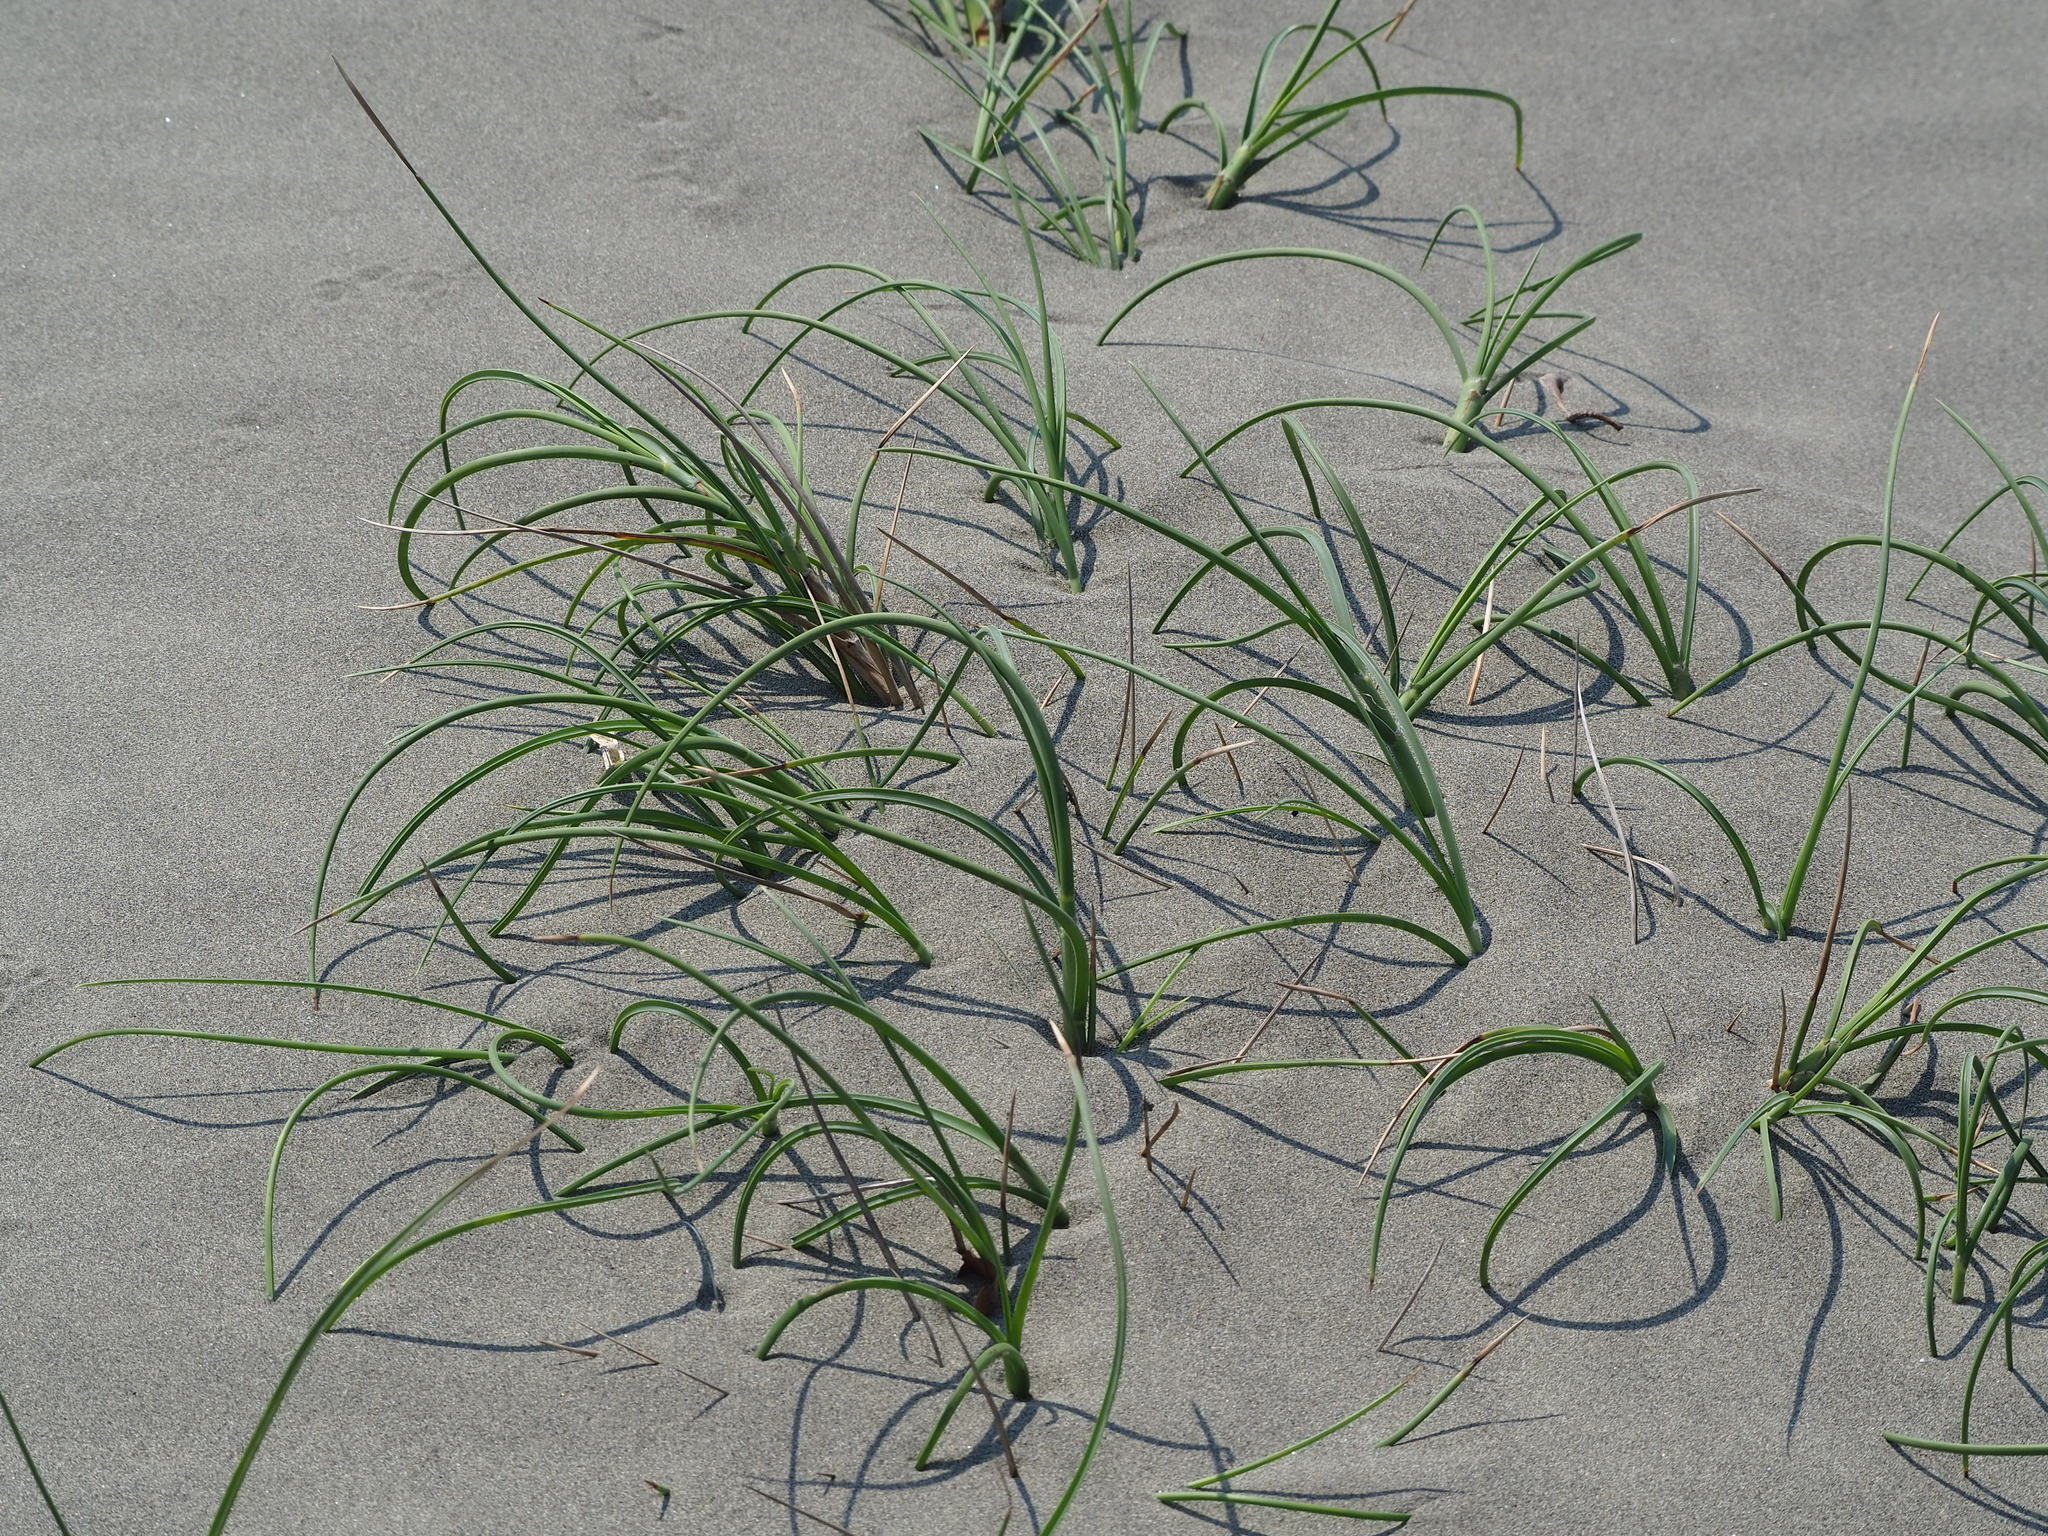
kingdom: Plantae
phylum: Tracheophyta
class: Liliopsida
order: Poales
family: Poaceae
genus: Spinifex
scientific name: Spinifex littoreus
